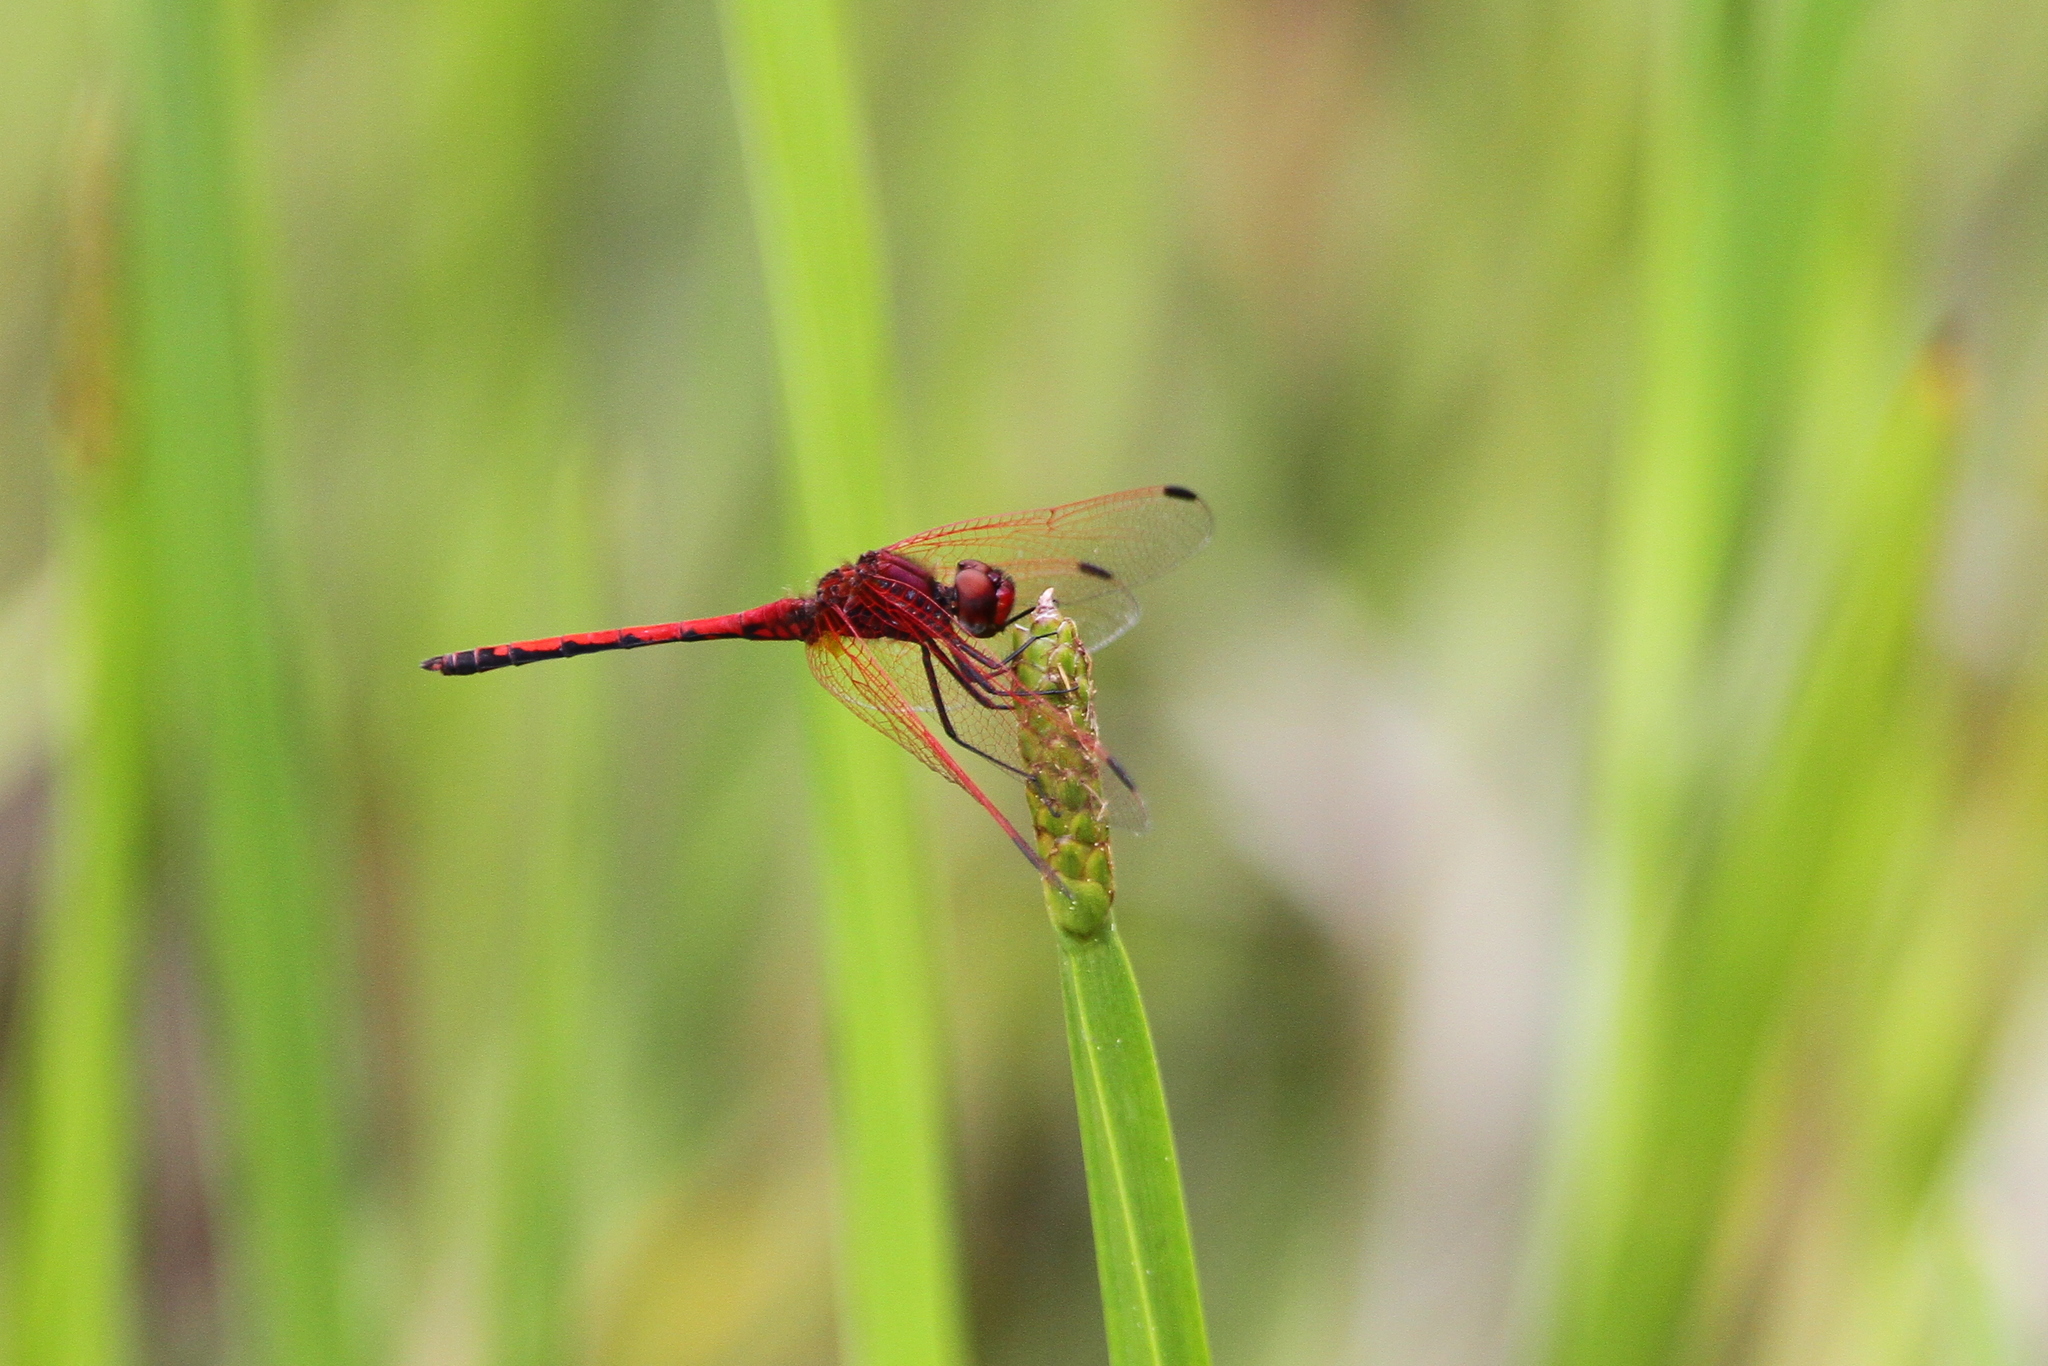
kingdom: Animalia
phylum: Arthropoda
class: Insecta
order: Odonata
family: Libellulidae
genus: Trithemis
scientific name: Trithemis arteriosa
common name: Red-veined dropwing
